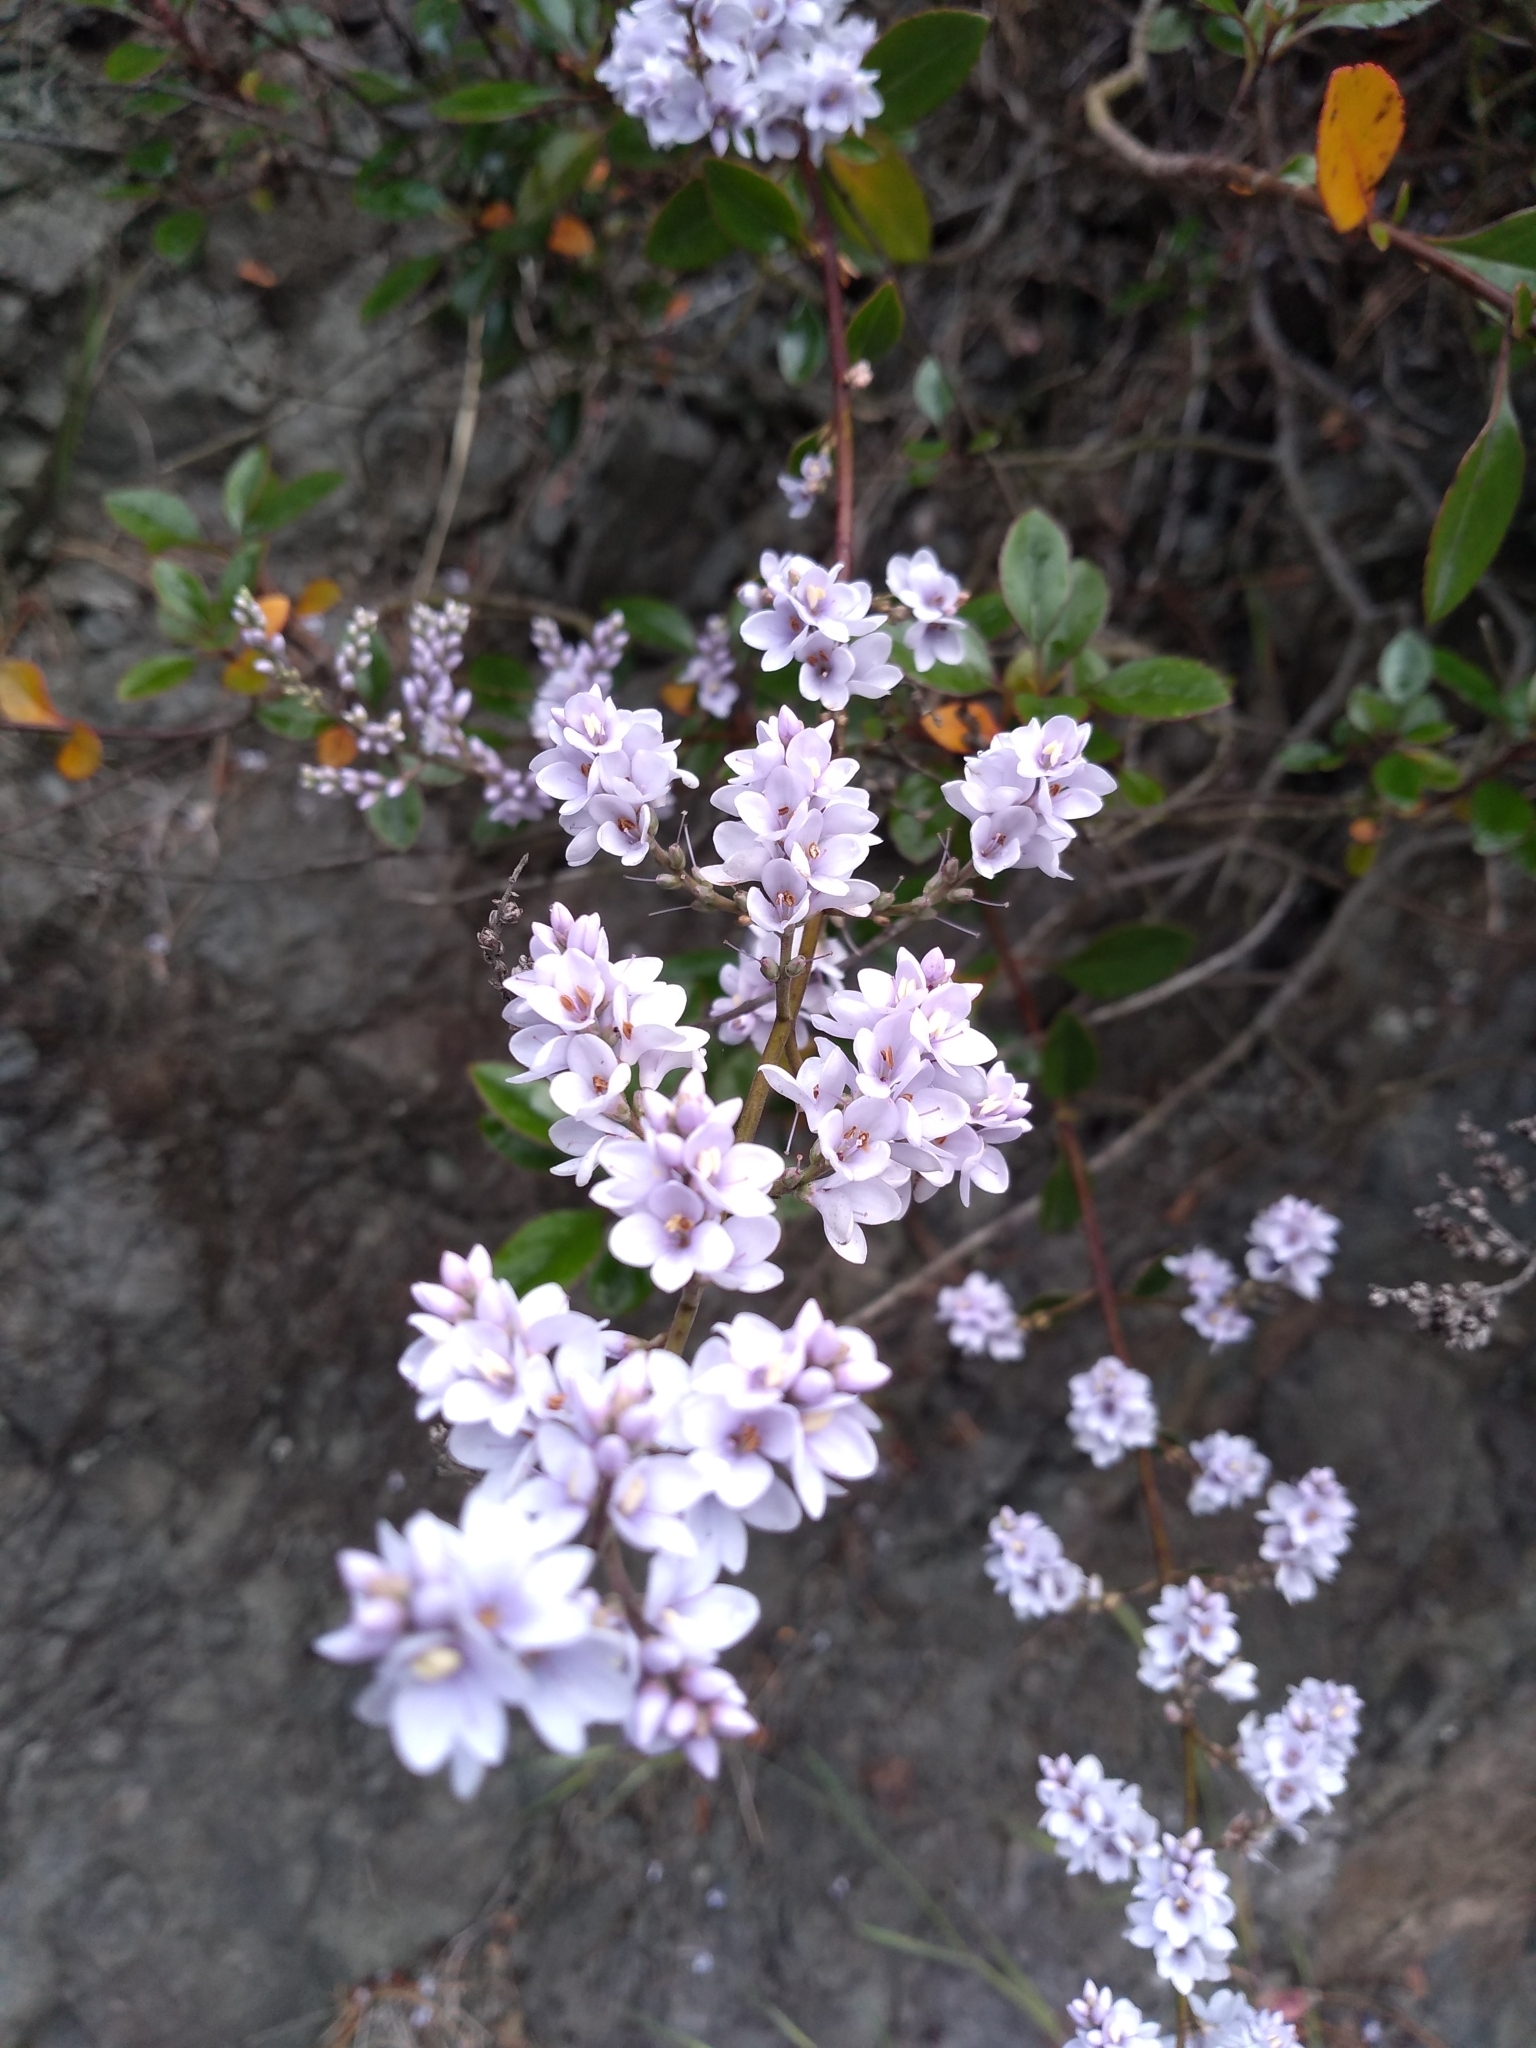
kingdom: Plantae
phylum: Tracheophyta
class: Magnoliopsida
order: Lamiales
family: Plantaginaceae
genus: Veronica
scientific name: Veronica hulkeana
